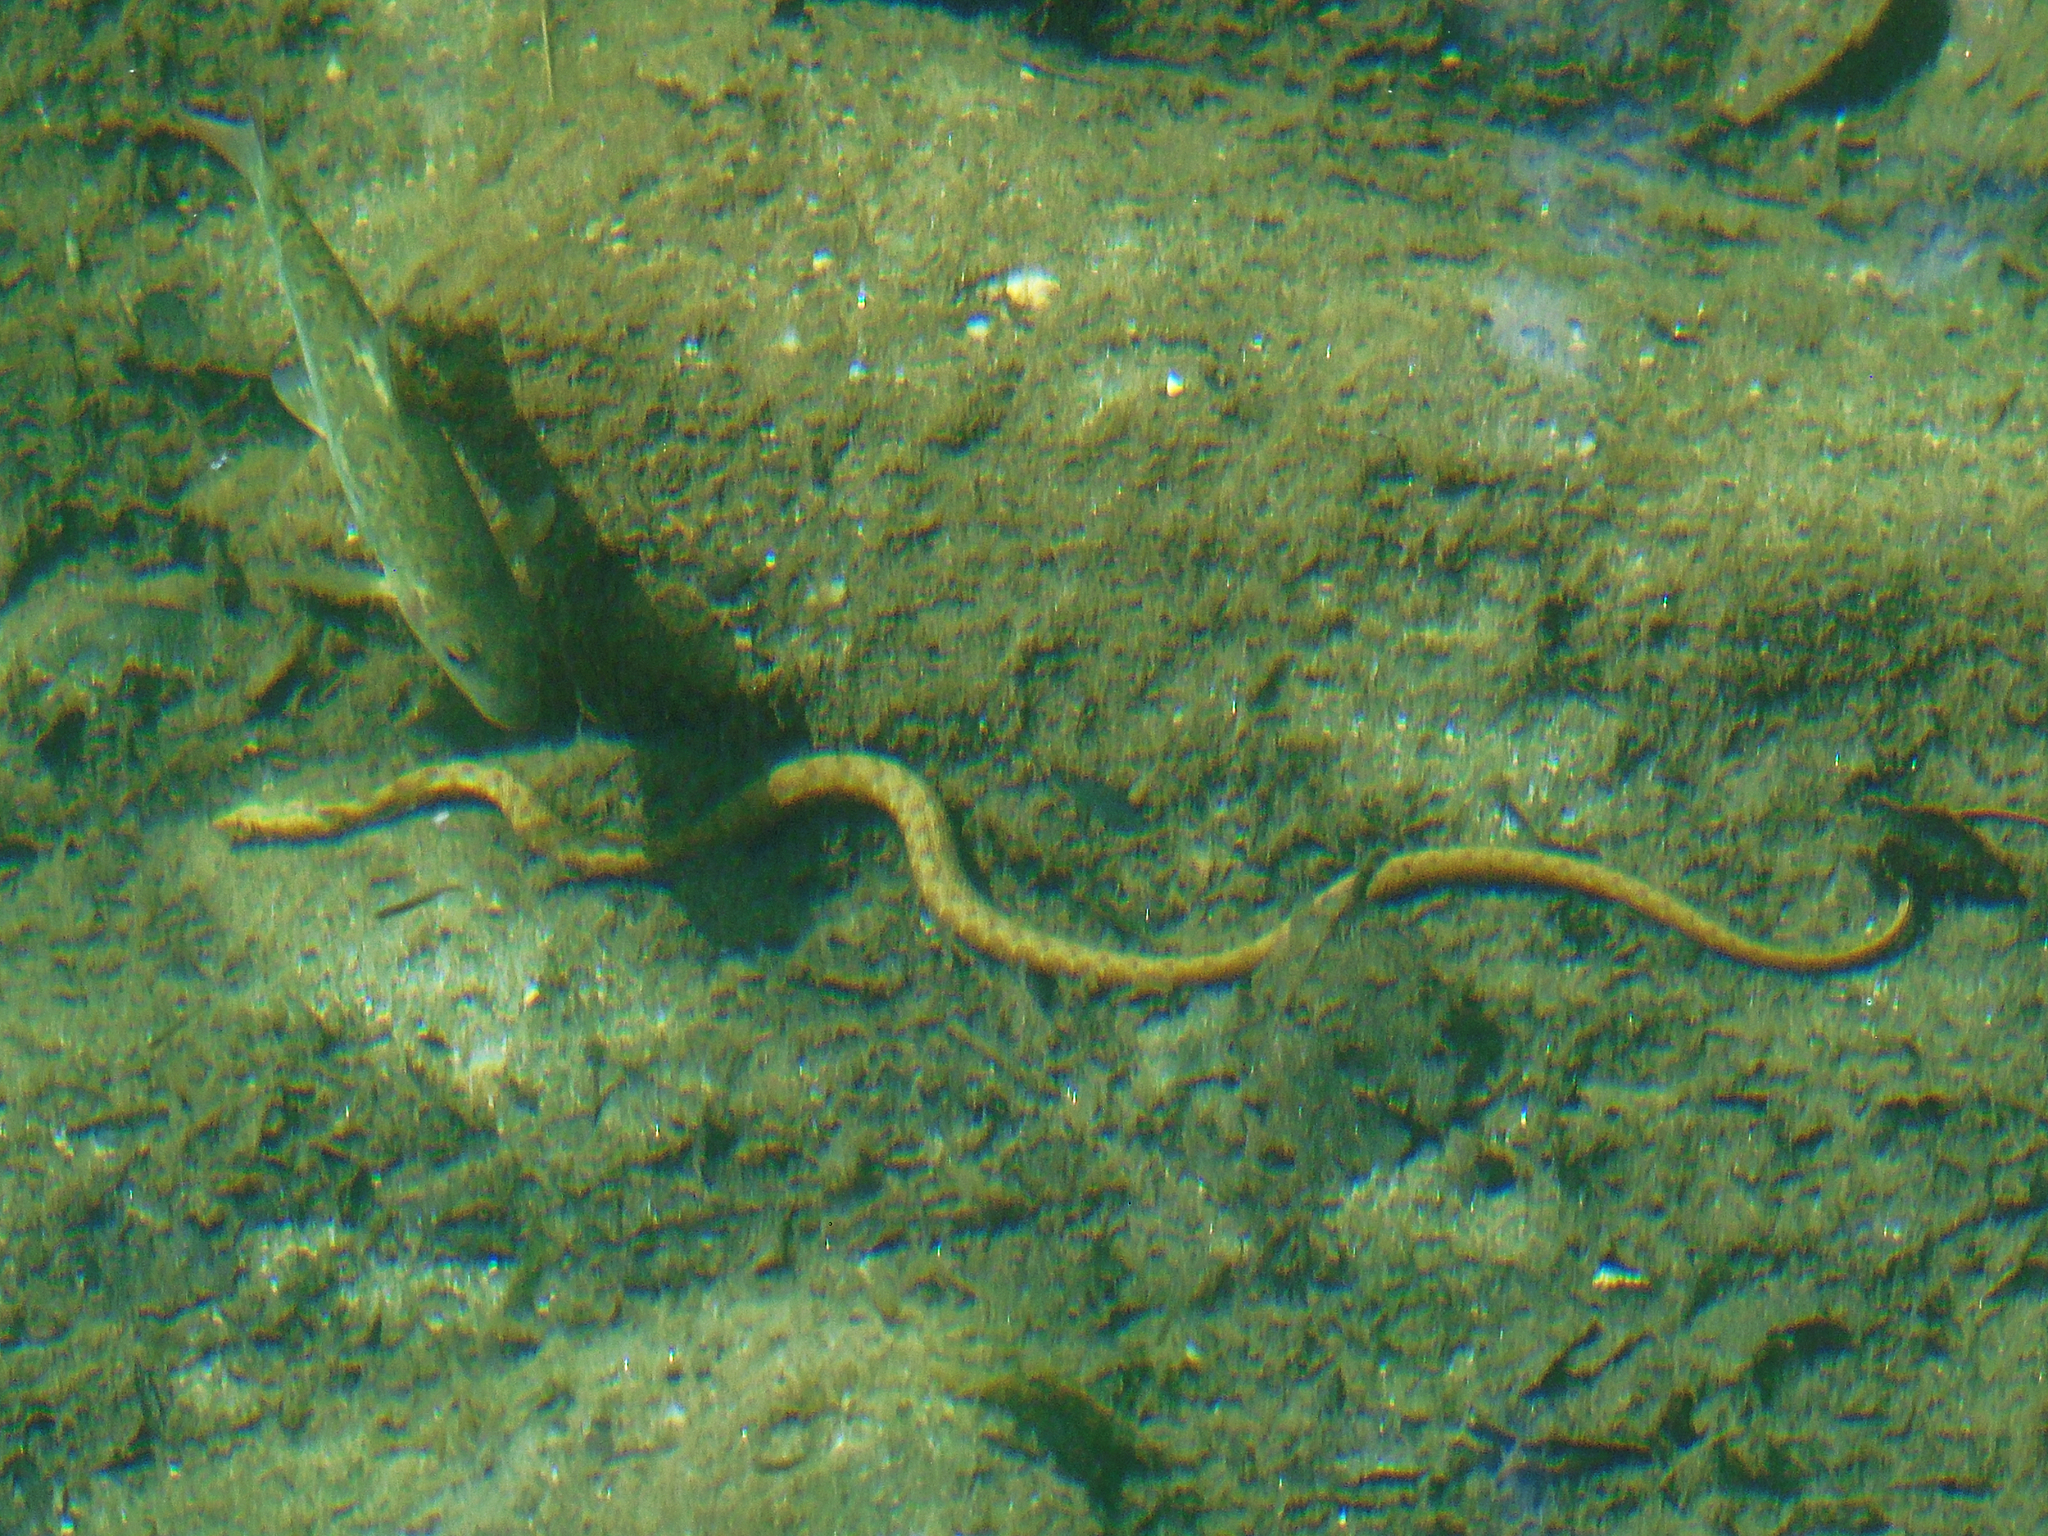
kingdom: Animalia
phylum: Chordata
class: Squamata
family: Colubridae
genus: Natrix
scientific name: Natrix tessellata
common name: Dice snake
